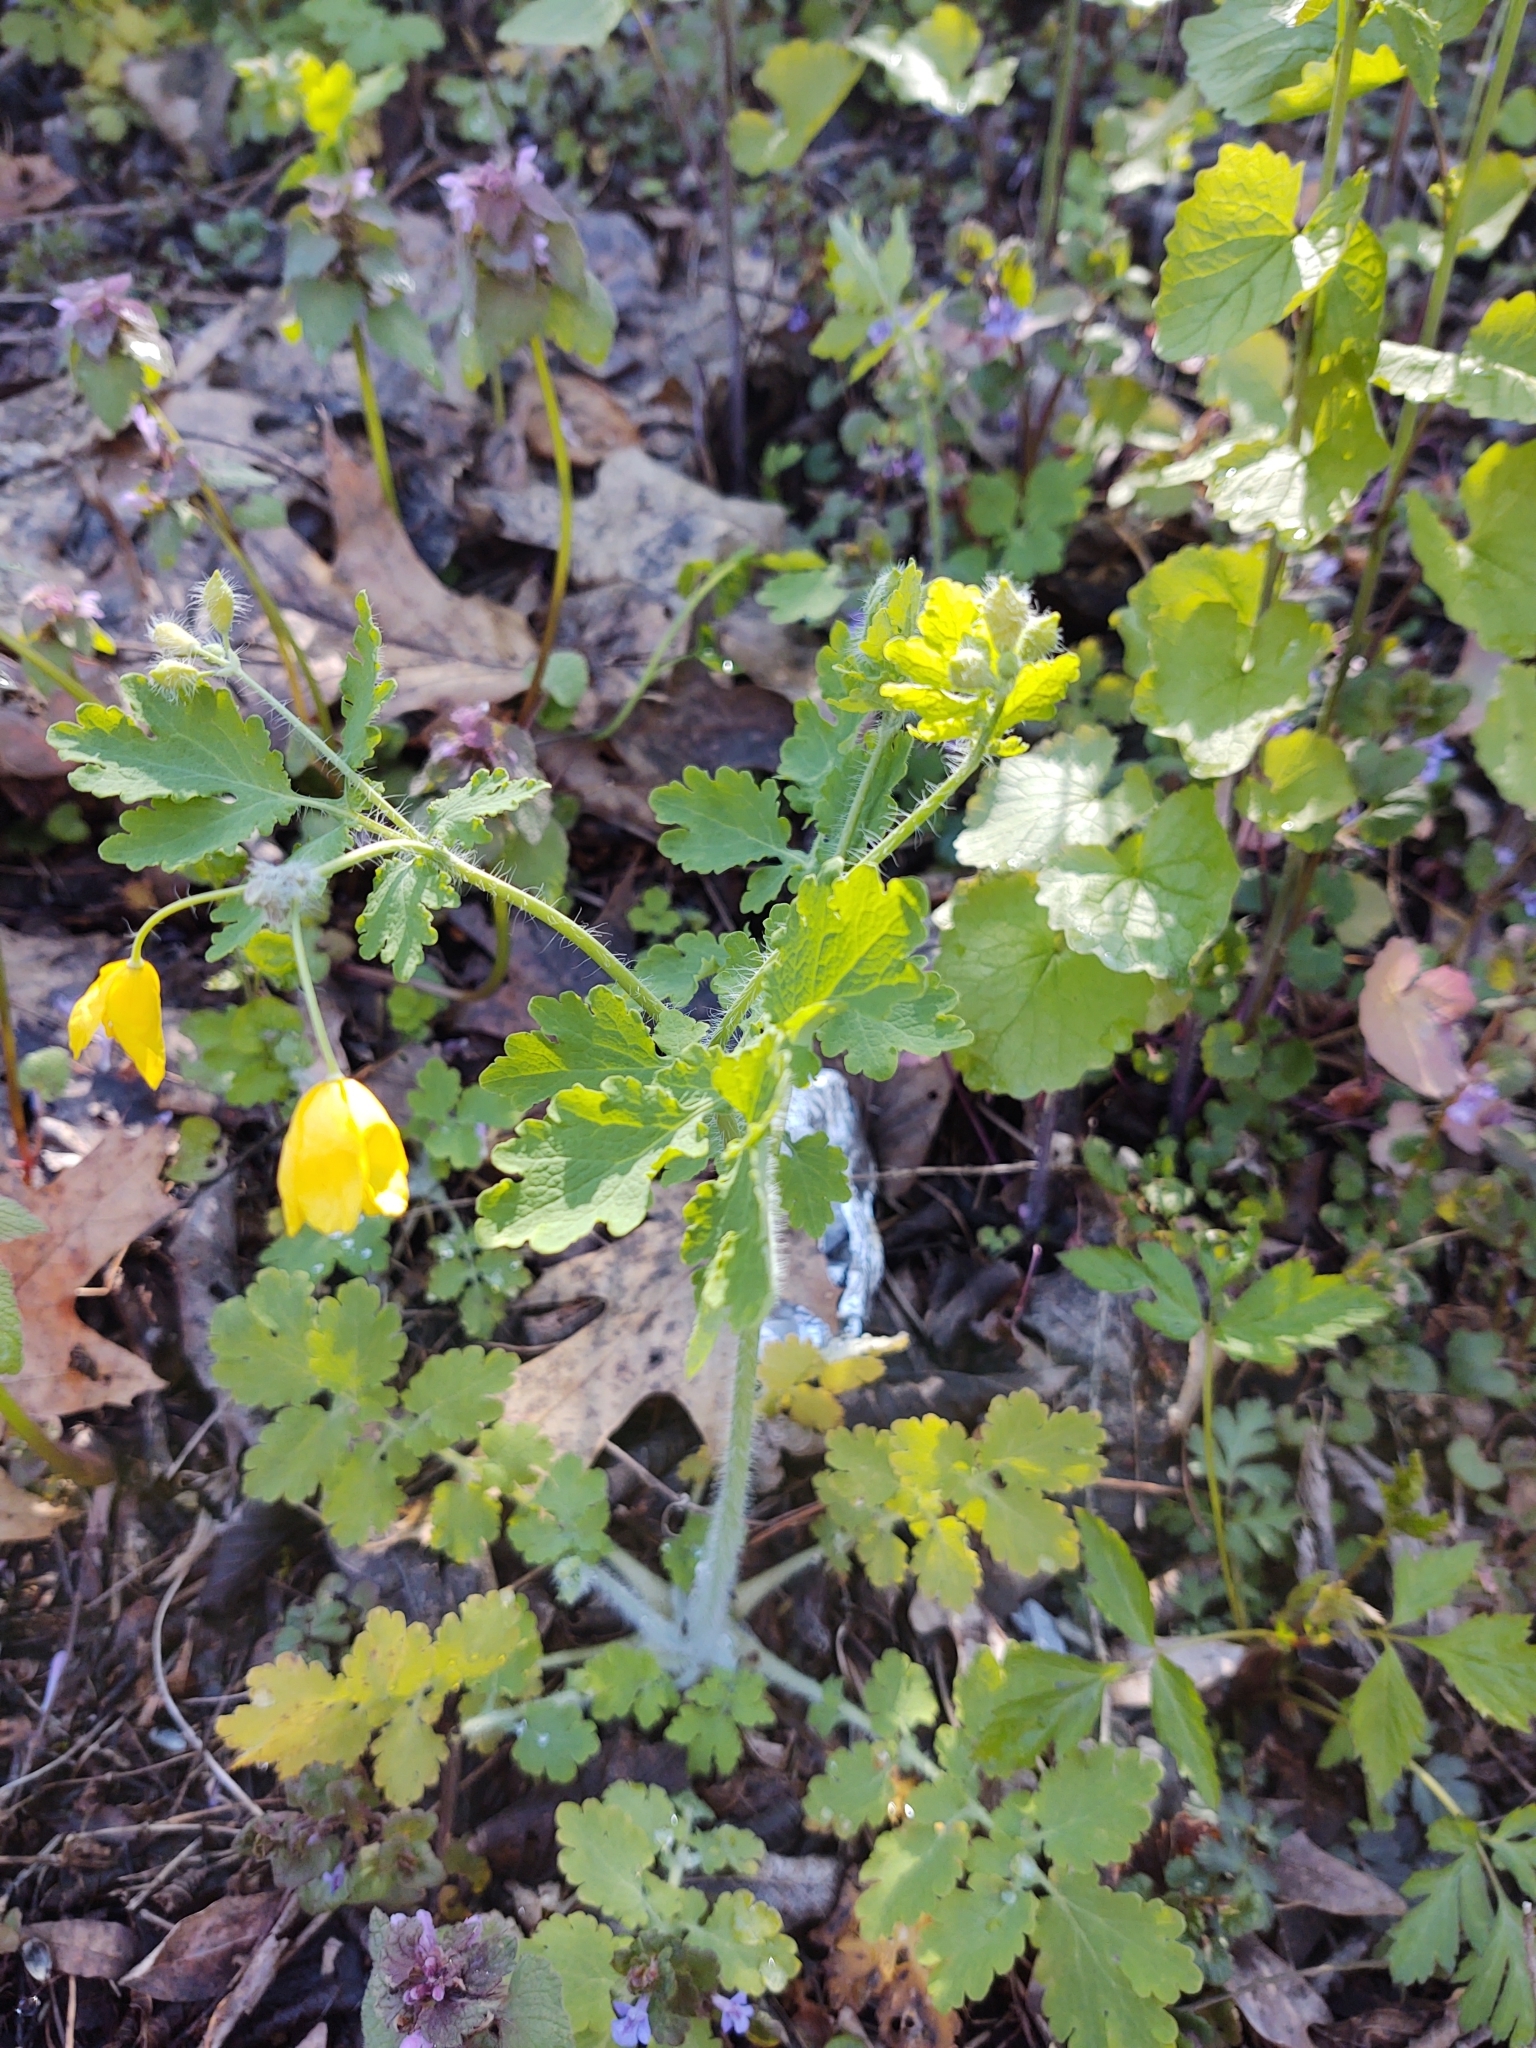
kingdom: Plantae
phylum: Tracheophyta
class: Magnoliopsida
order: Ranunculales
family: Papaveraceae
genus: Chelidonium
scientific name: Chelidonium majus
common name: Greater celandine
